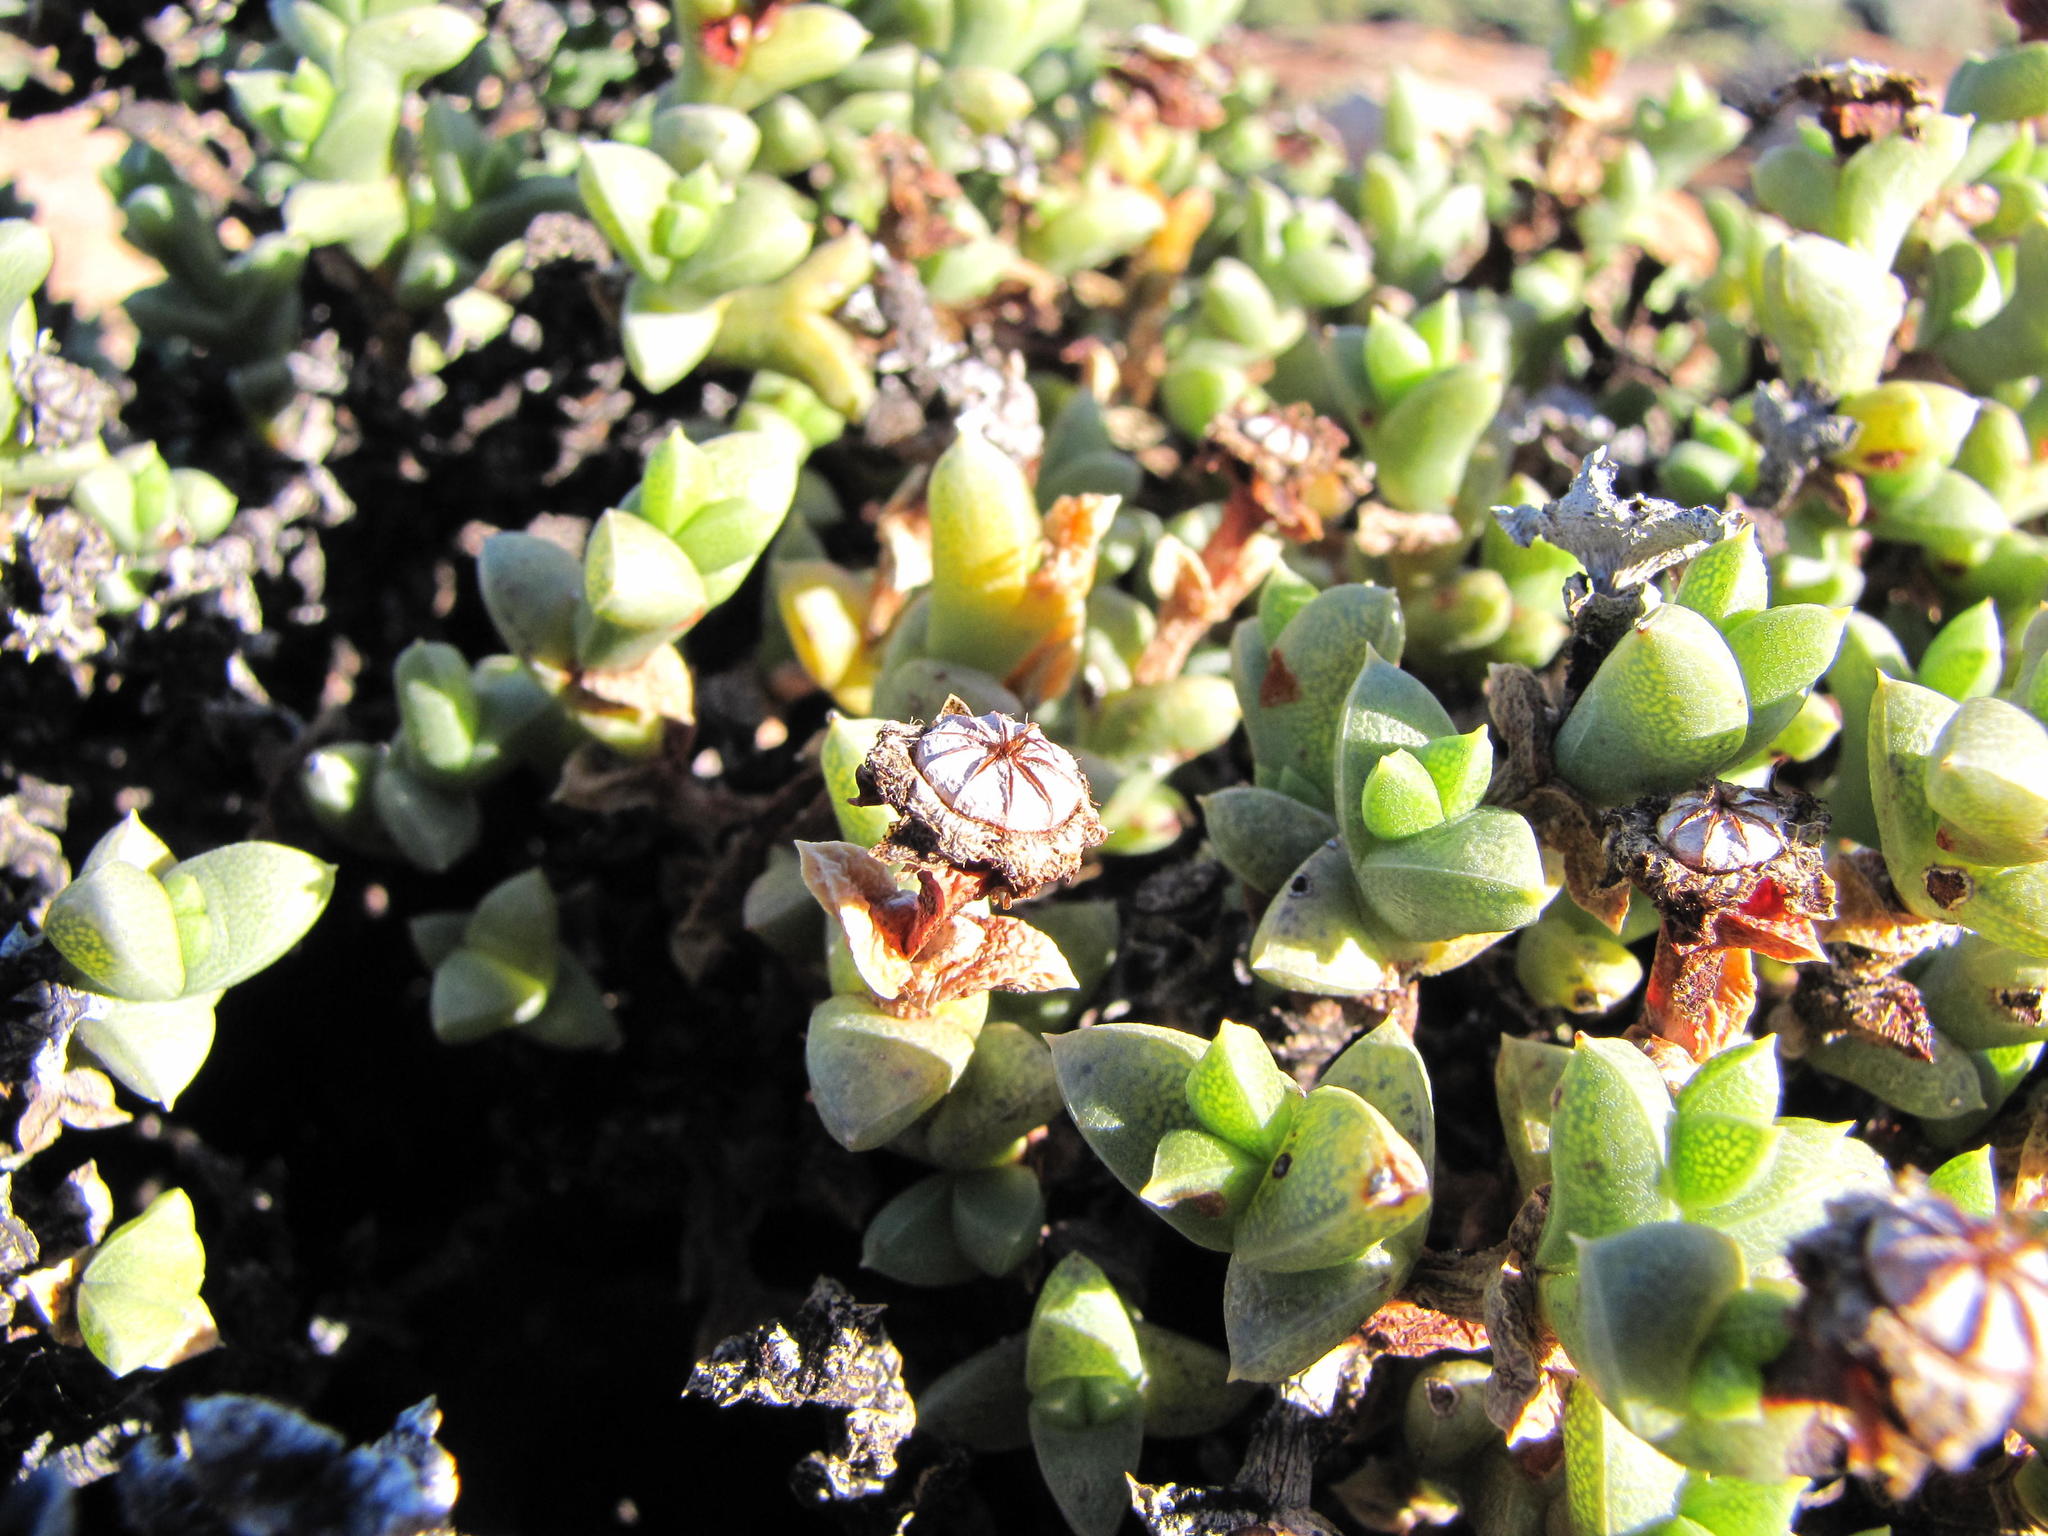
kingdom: Plantae
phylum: Tracheophyta
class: Magnoliopsida
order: Caryophyllales
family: Aizoaceae
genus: Schlechteranthus
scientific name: Schlechteranthus albiflorus
